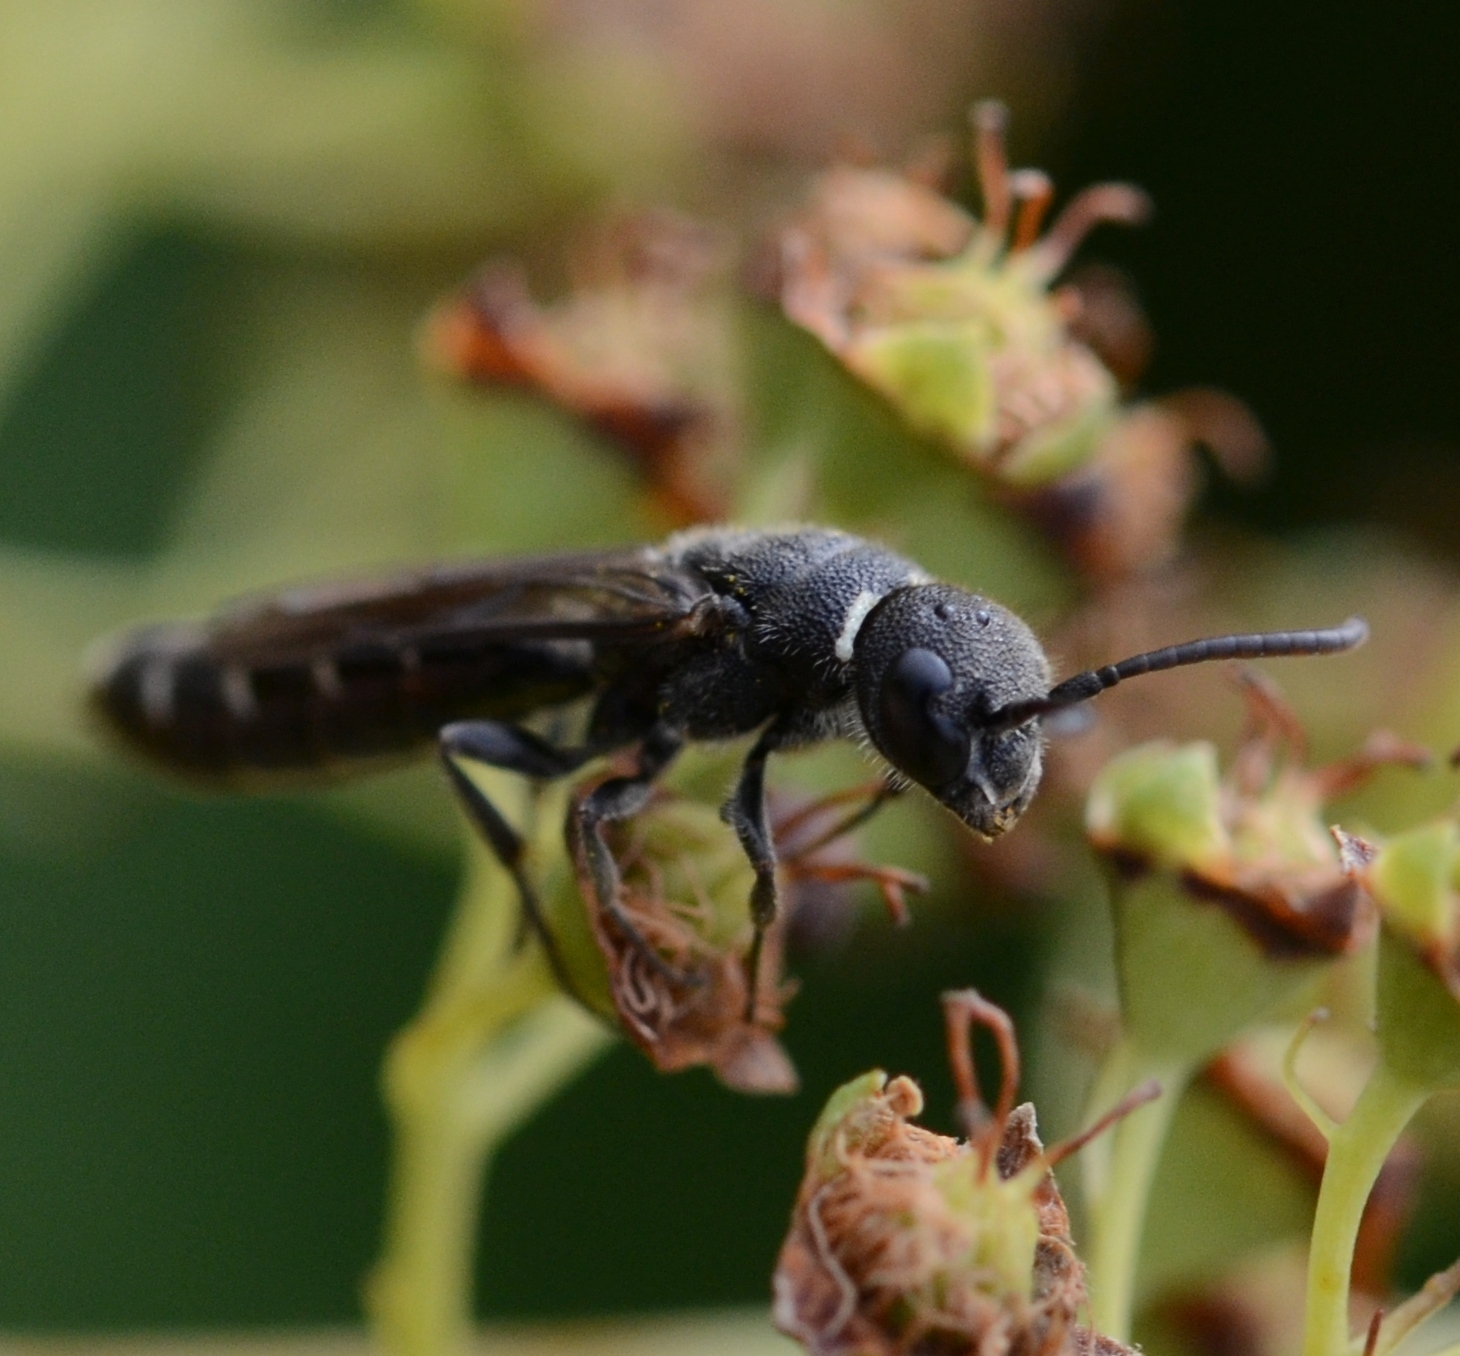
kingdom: Animalia
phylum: Arthropoda
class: Insecta
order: Hymenoptera
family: Sapygidae
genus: Sapygina
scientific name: Sapygina decemguttata
